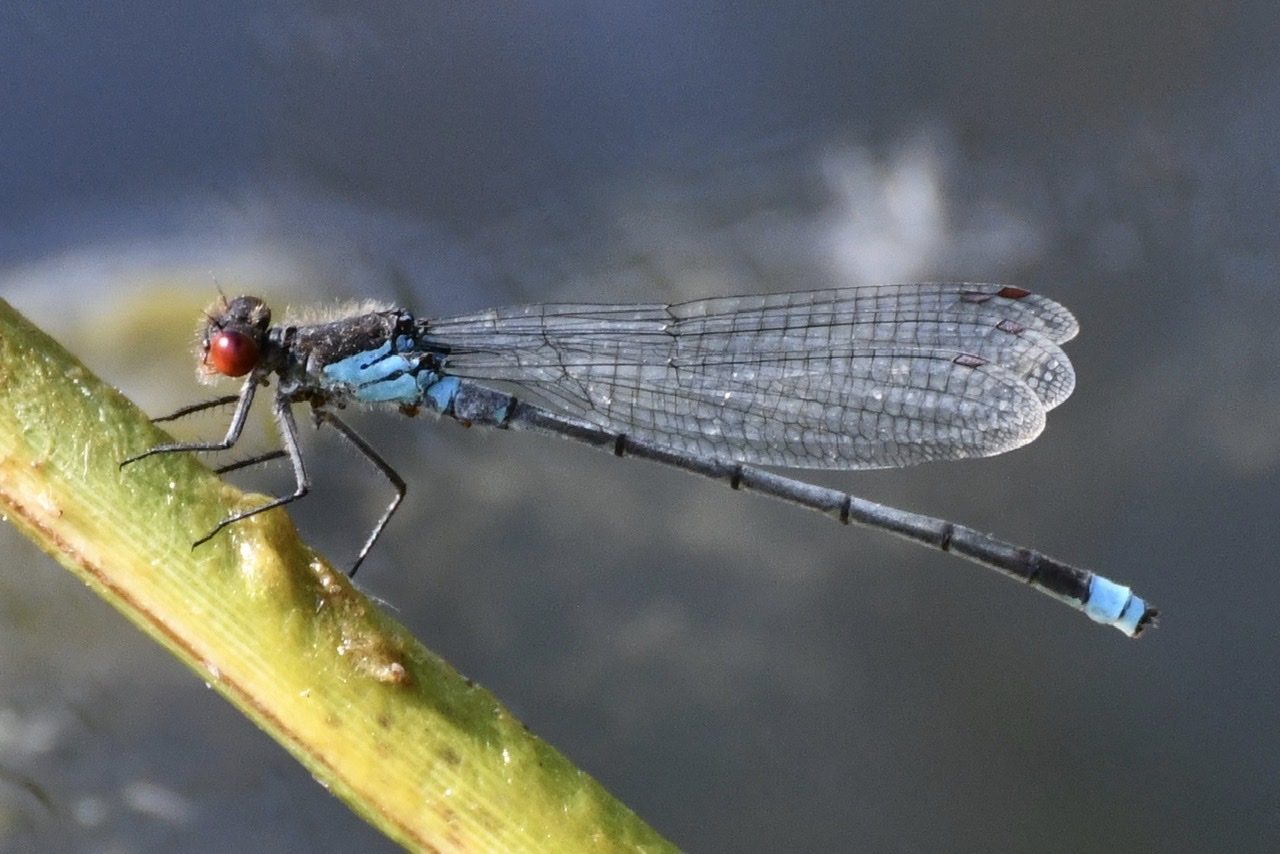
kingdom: Animalia
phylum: Arthropoda
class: Insecta
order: Odonata
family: Coenagrionidae
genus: Erythromma
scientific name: Erythromma najas
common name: Red-eyed damselfly
